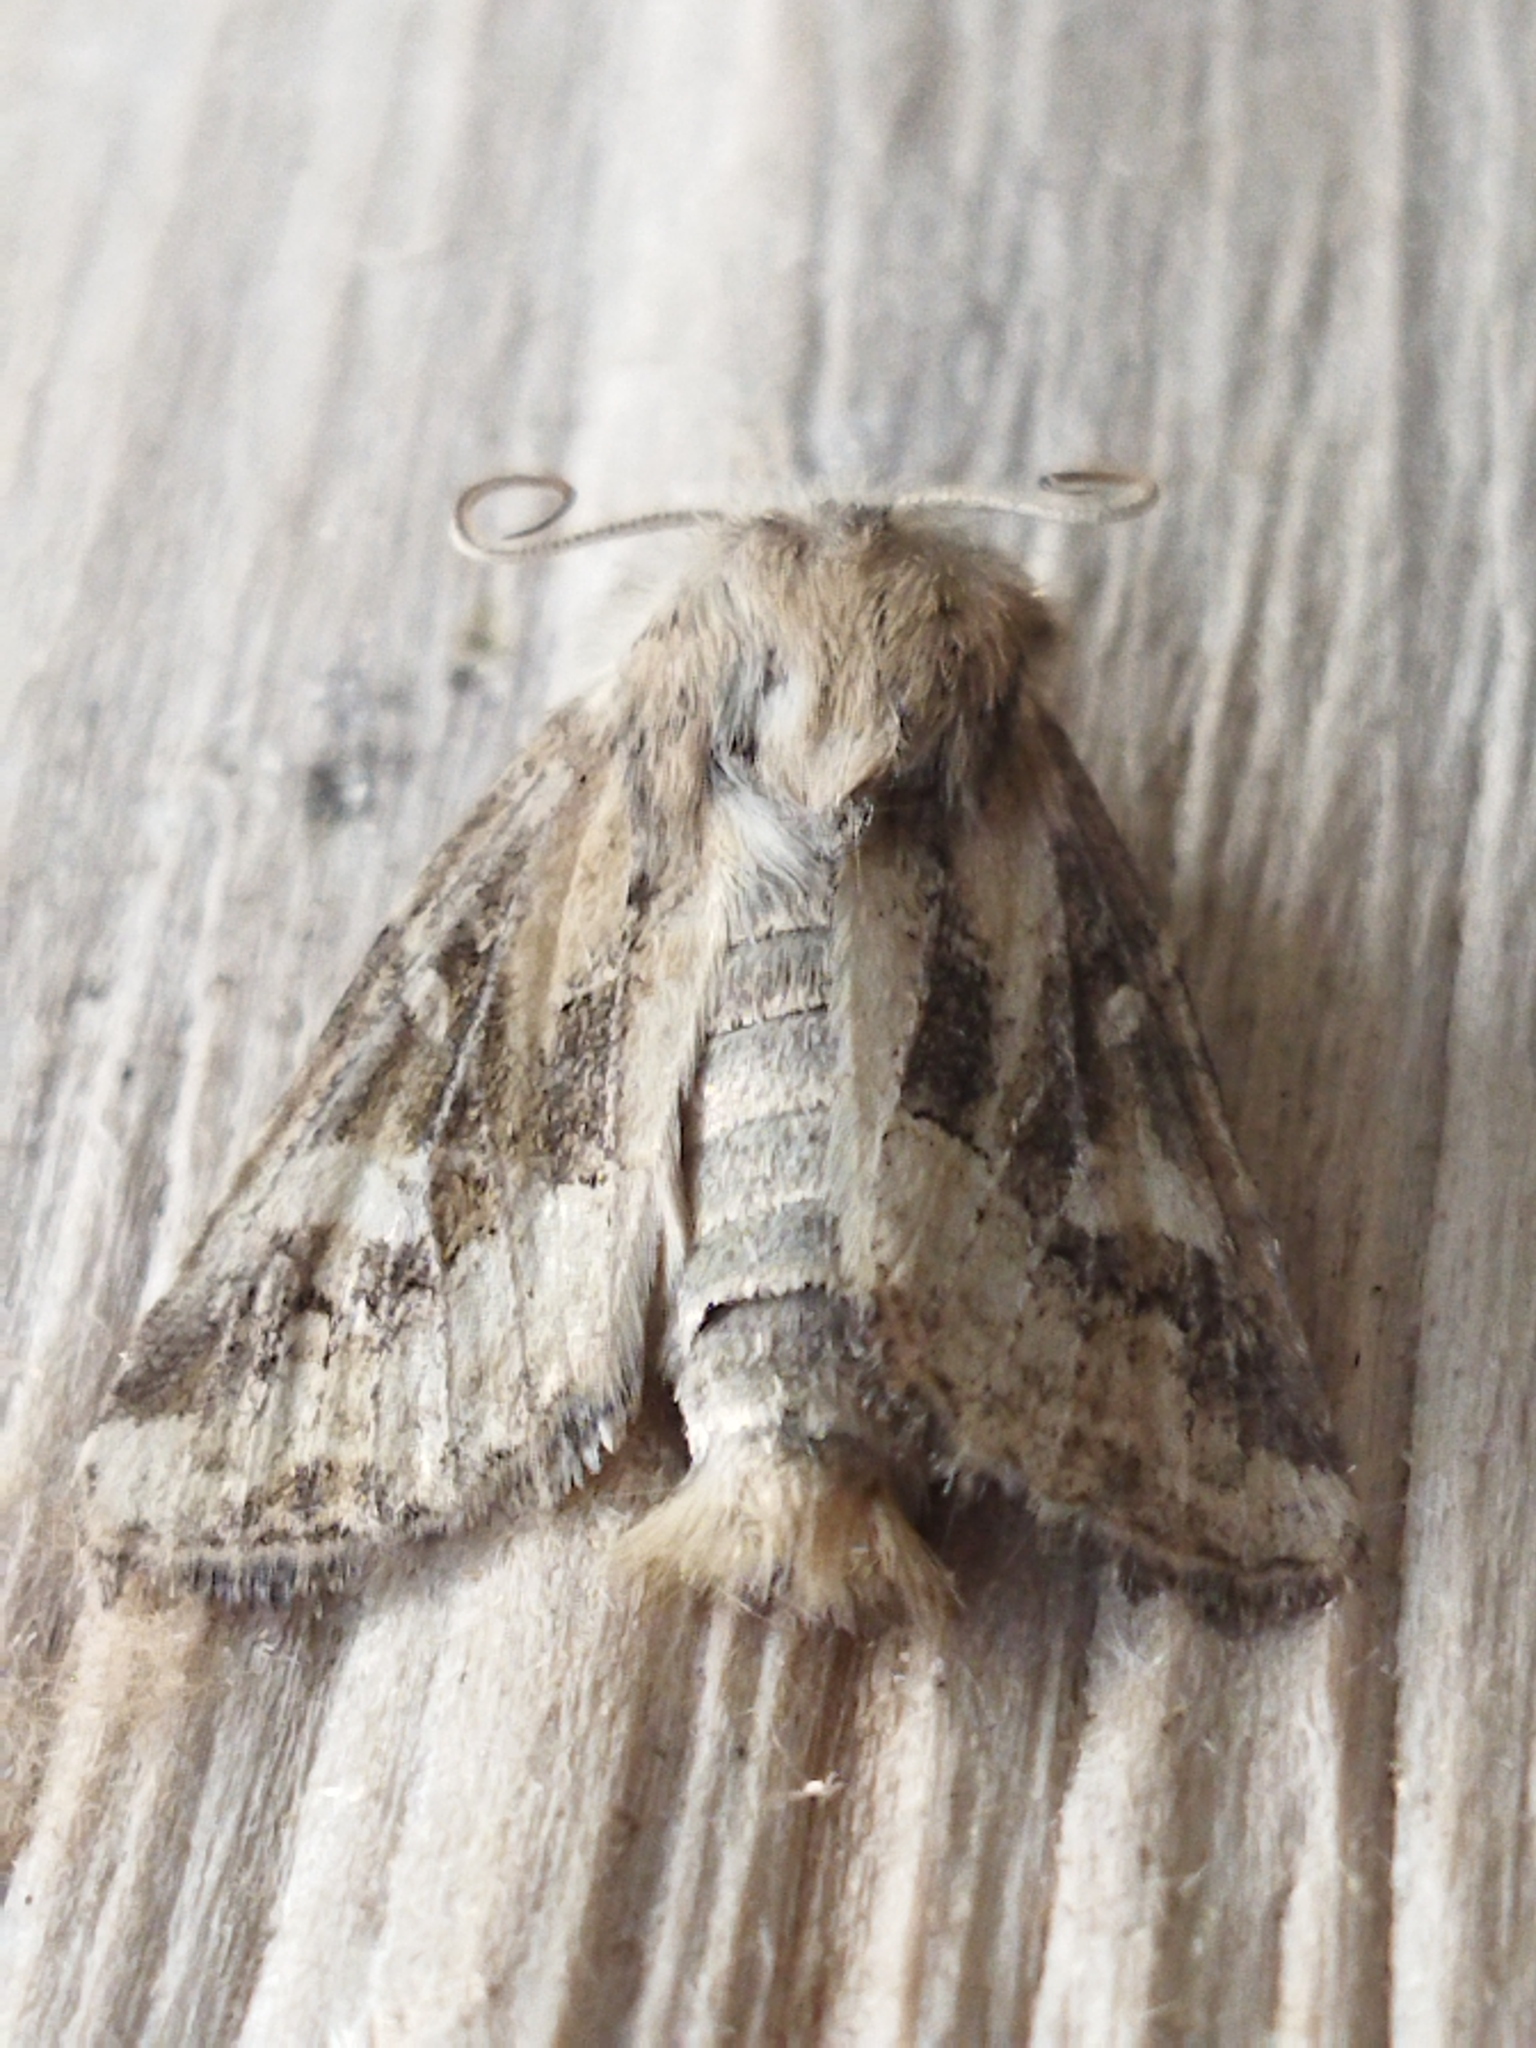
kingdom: Animalia
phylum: Arthropoda
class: Insecta
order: Lepidoptera
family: Noctuidae
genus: Luperina
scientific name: Luperina dumerilii
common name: Dumeril's rustic
